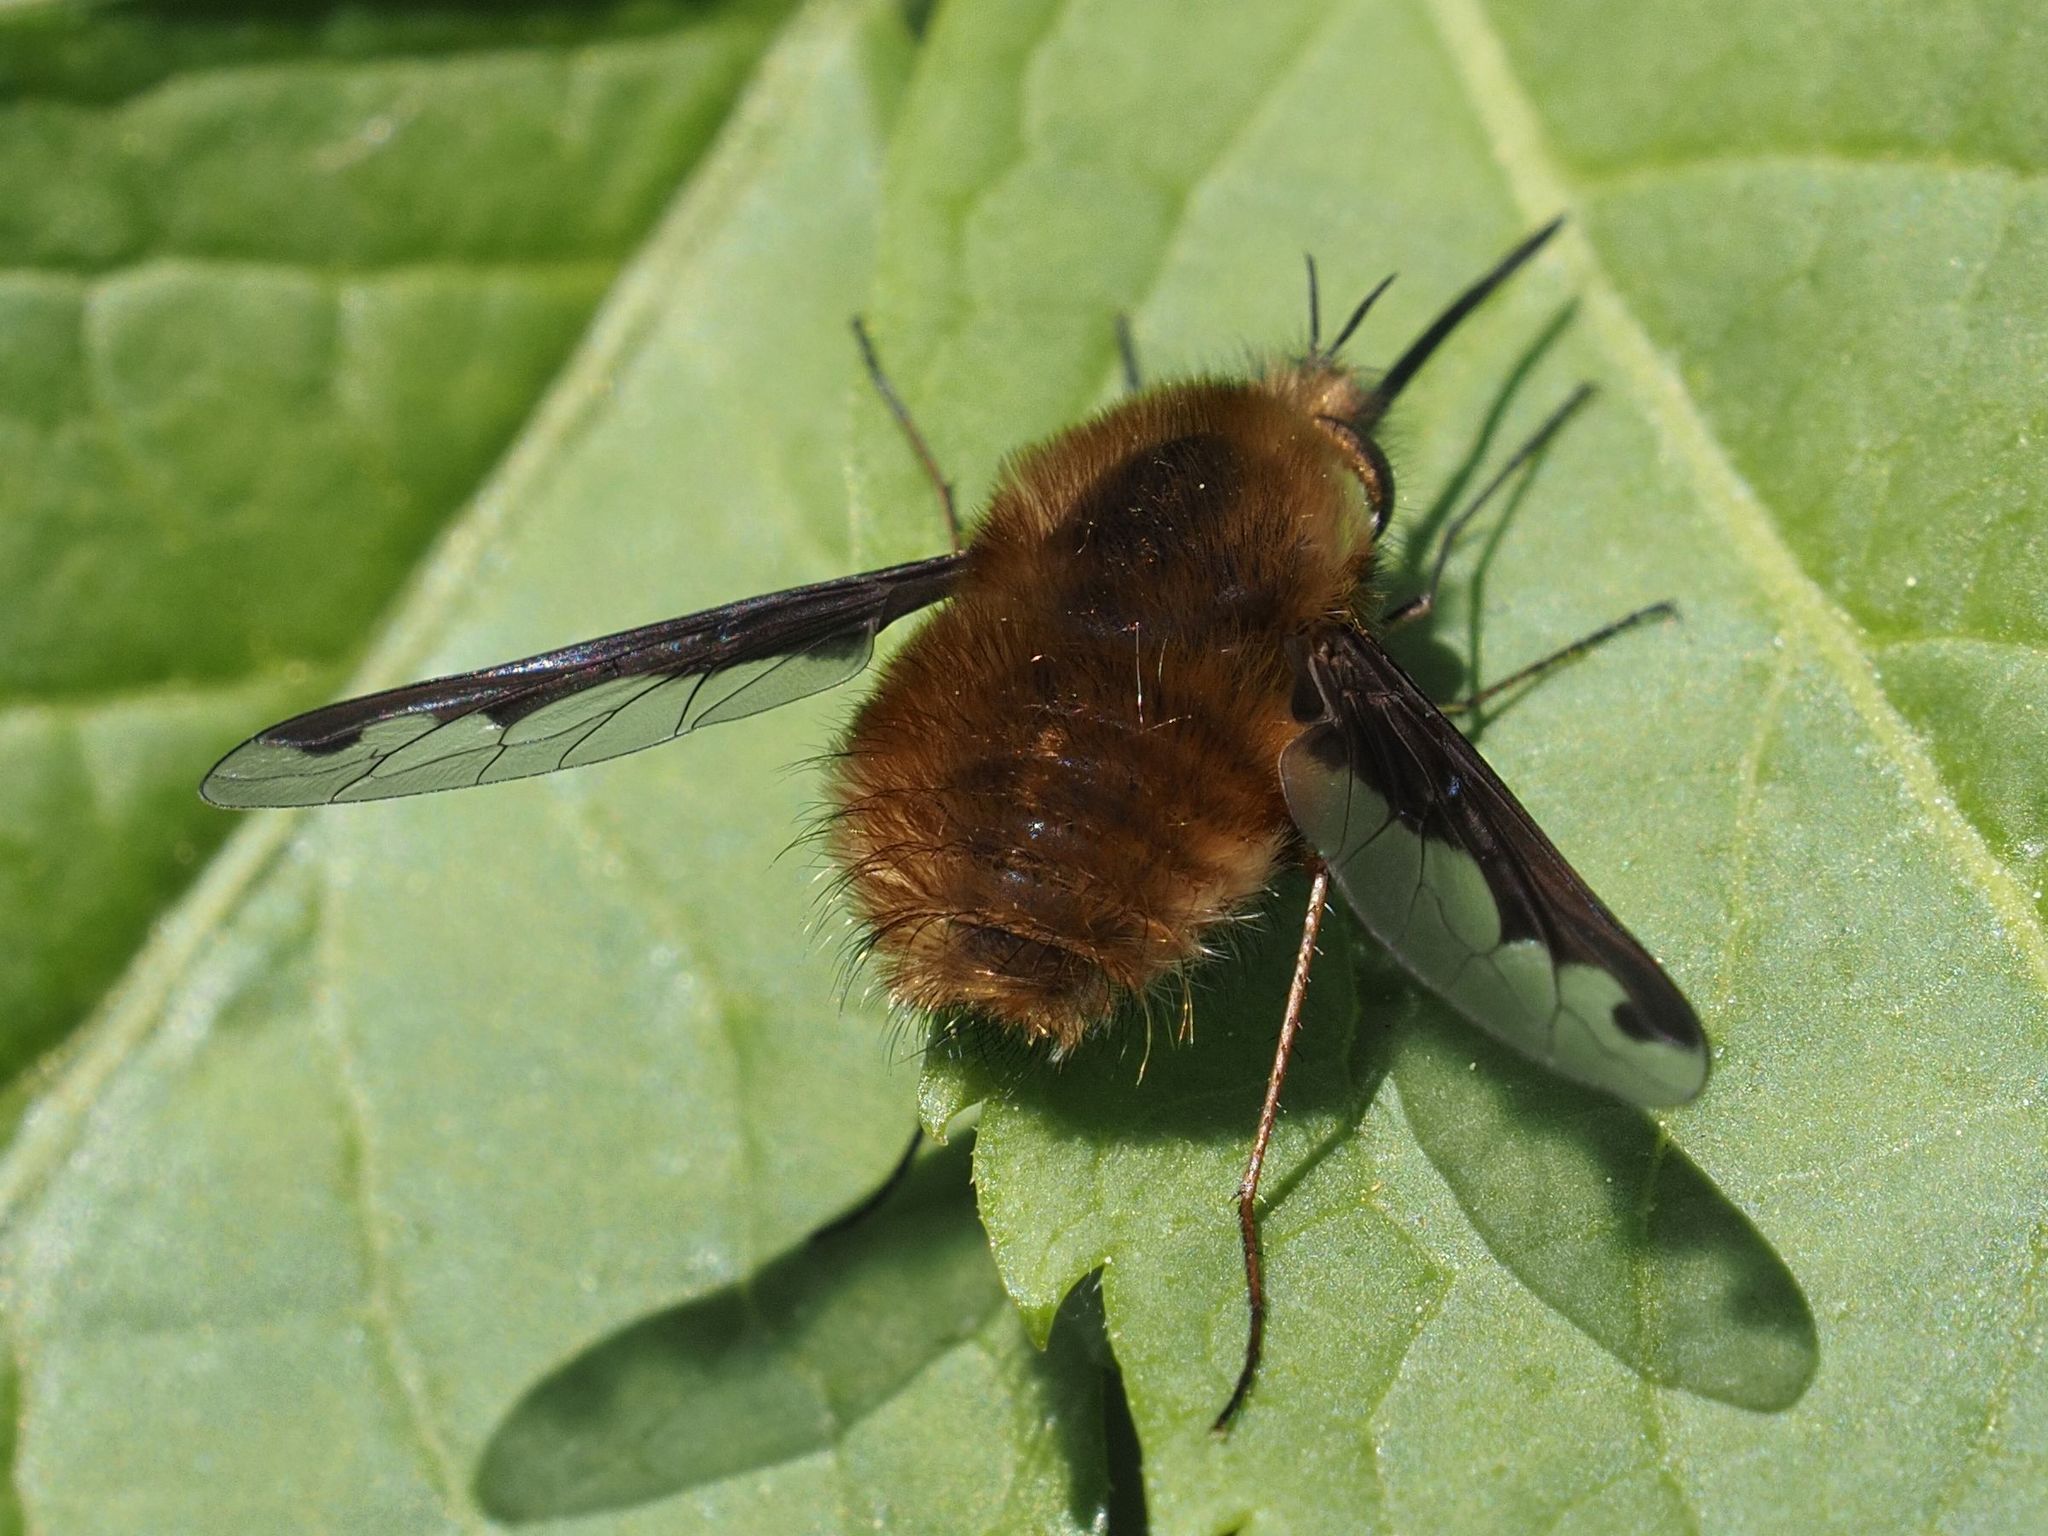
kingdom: Animalia
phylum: Arthropoda
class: Insecta
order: Diptera
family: Bombyliidae
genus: Bombylius
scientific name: Bombylius major
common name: Bee fly
